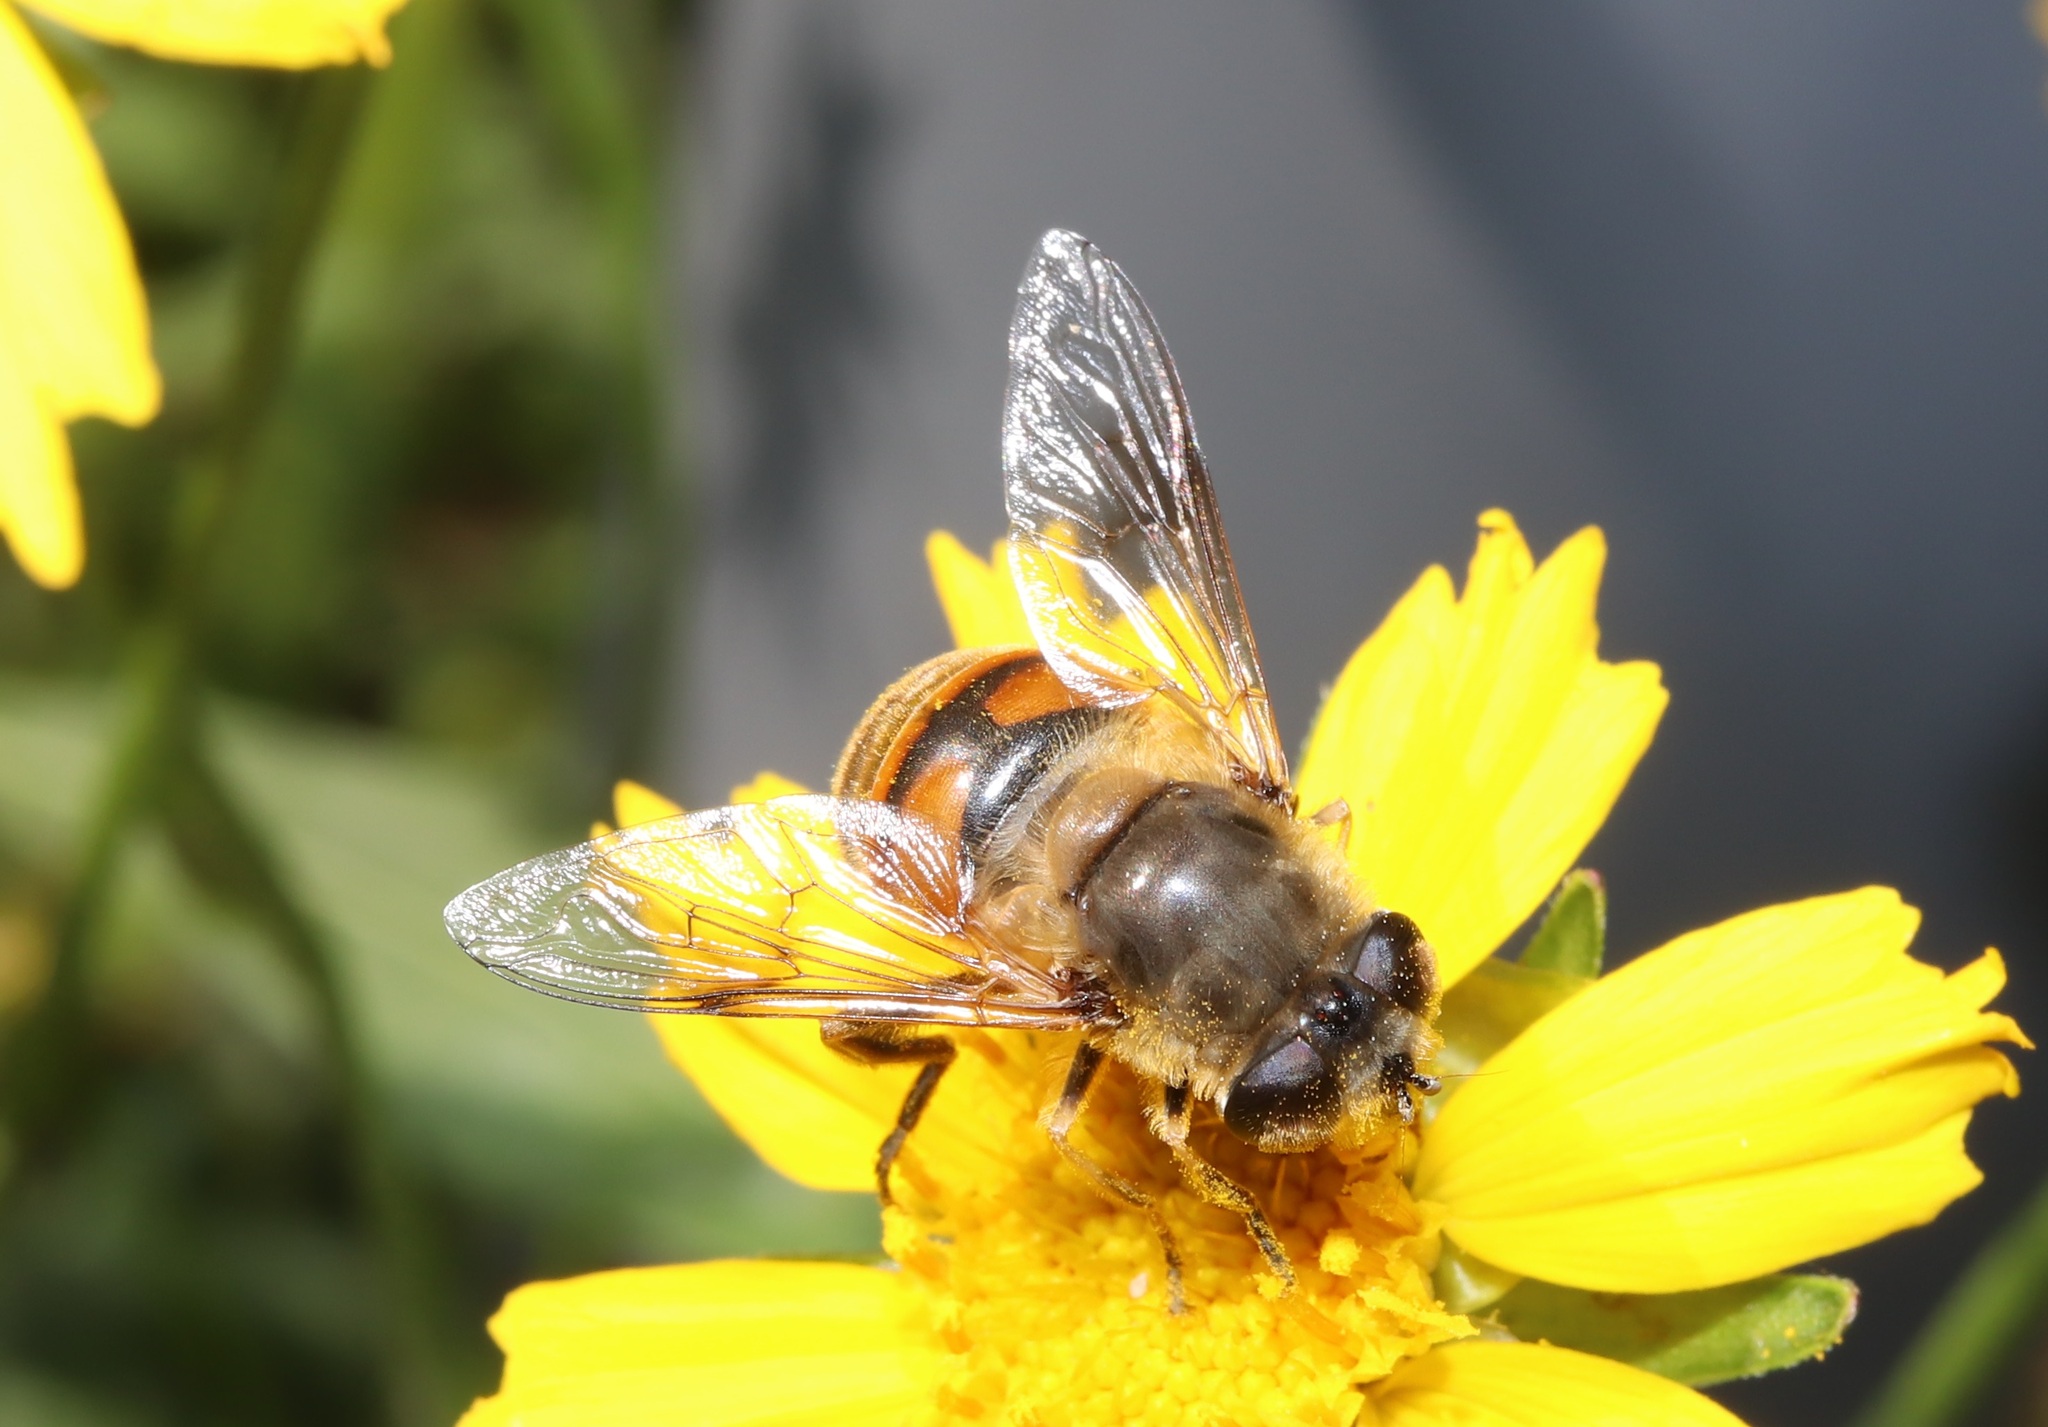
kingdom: Animalia
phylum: Arthropoda
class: Insecta
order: Diptera
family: Syrphidae
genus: Eristalis
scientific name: Eristalis tenax
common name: Drone fly
